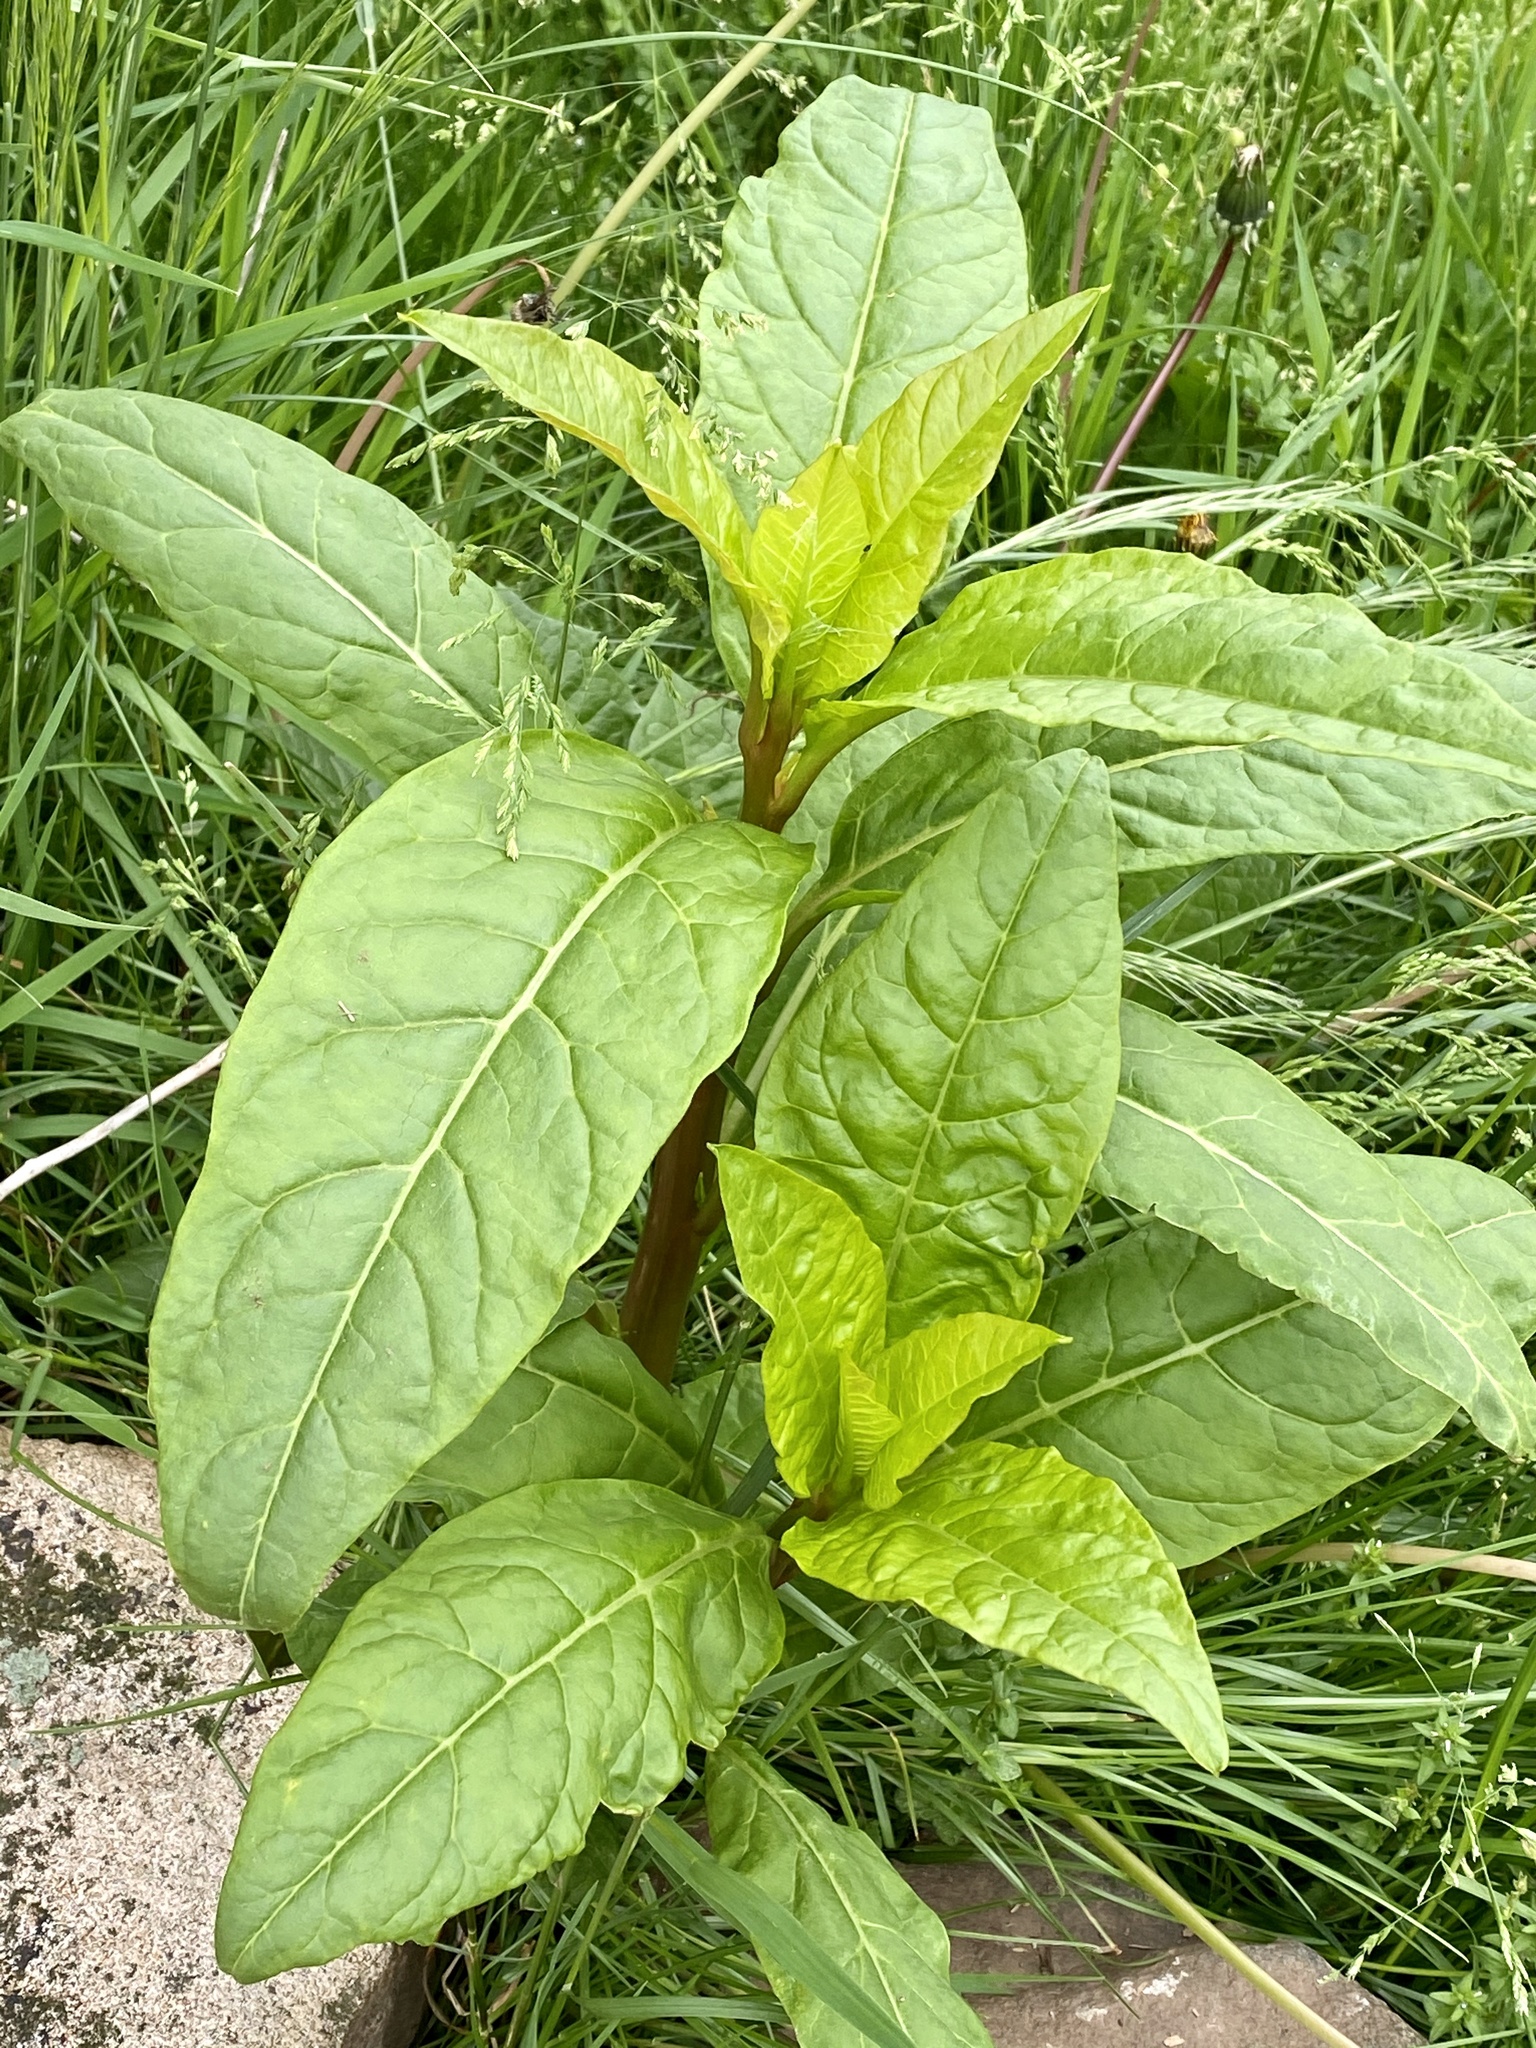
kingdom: Plantae
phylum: Tracheophyta
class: Magnoliopsida
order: Caryophyllales
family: Phytolaccaceae
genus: Phytolacca
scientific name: Phytolacca americana
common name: American pokeweed
